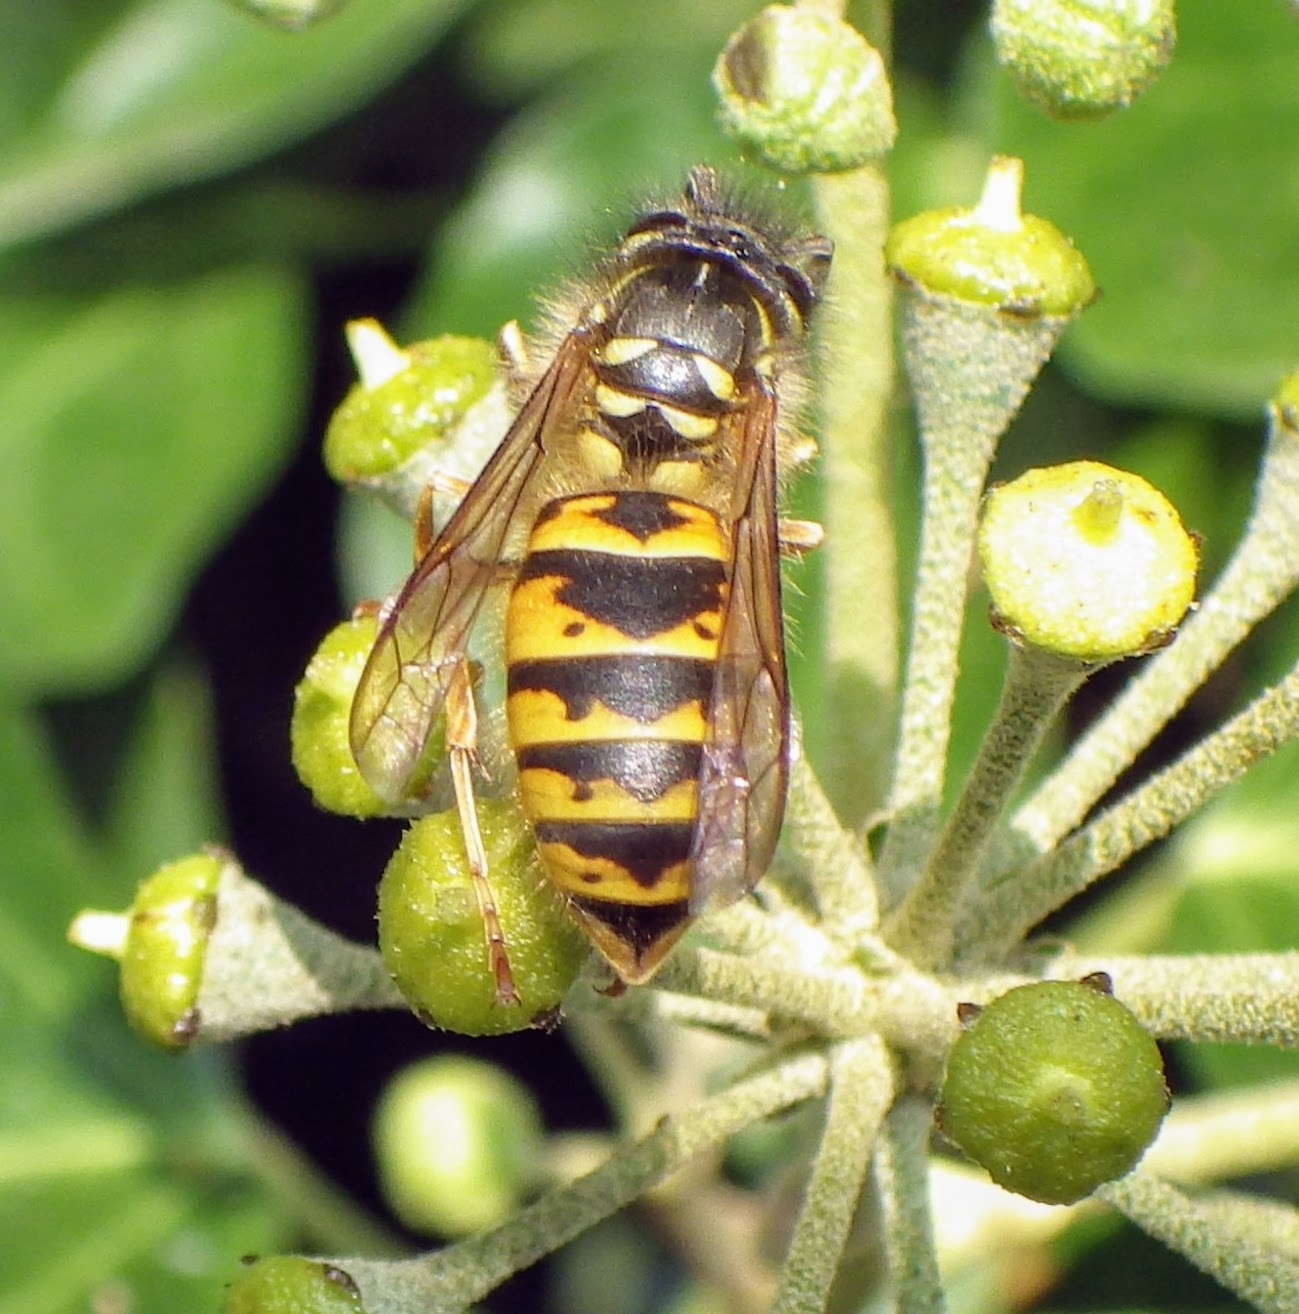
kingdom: Animalia
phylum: Arthropoda
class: Insecta
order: Hymenoptera
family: Vespidae
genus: Vespula
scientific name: Vespula vulgaris
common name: Common wasp
